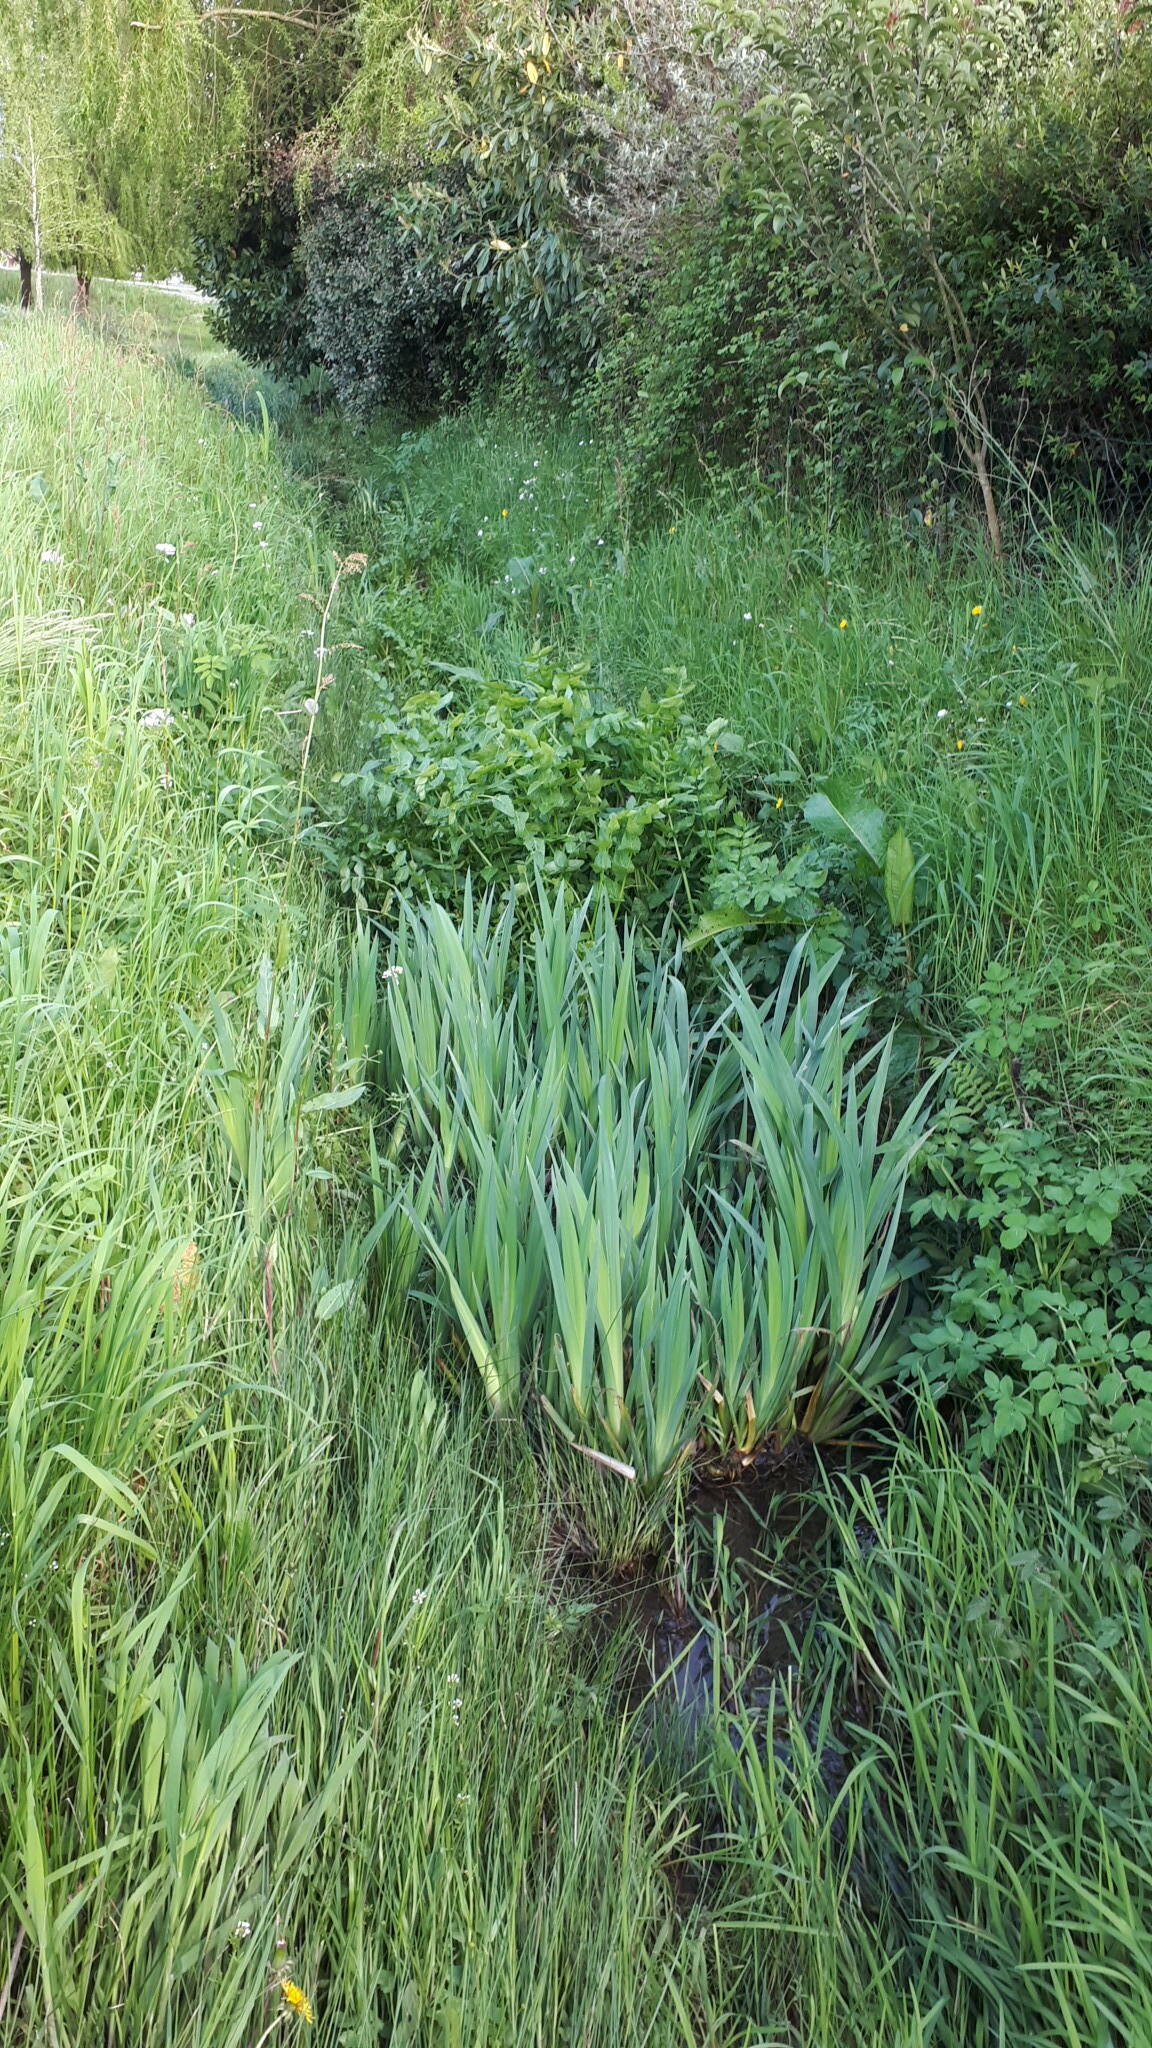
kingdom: Plantae
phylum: Tracheophyta
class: Liliopsida
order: Asparagales
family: Iridaceae
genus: Iris
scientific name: Iris pseudacorus
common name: Yellow flag
